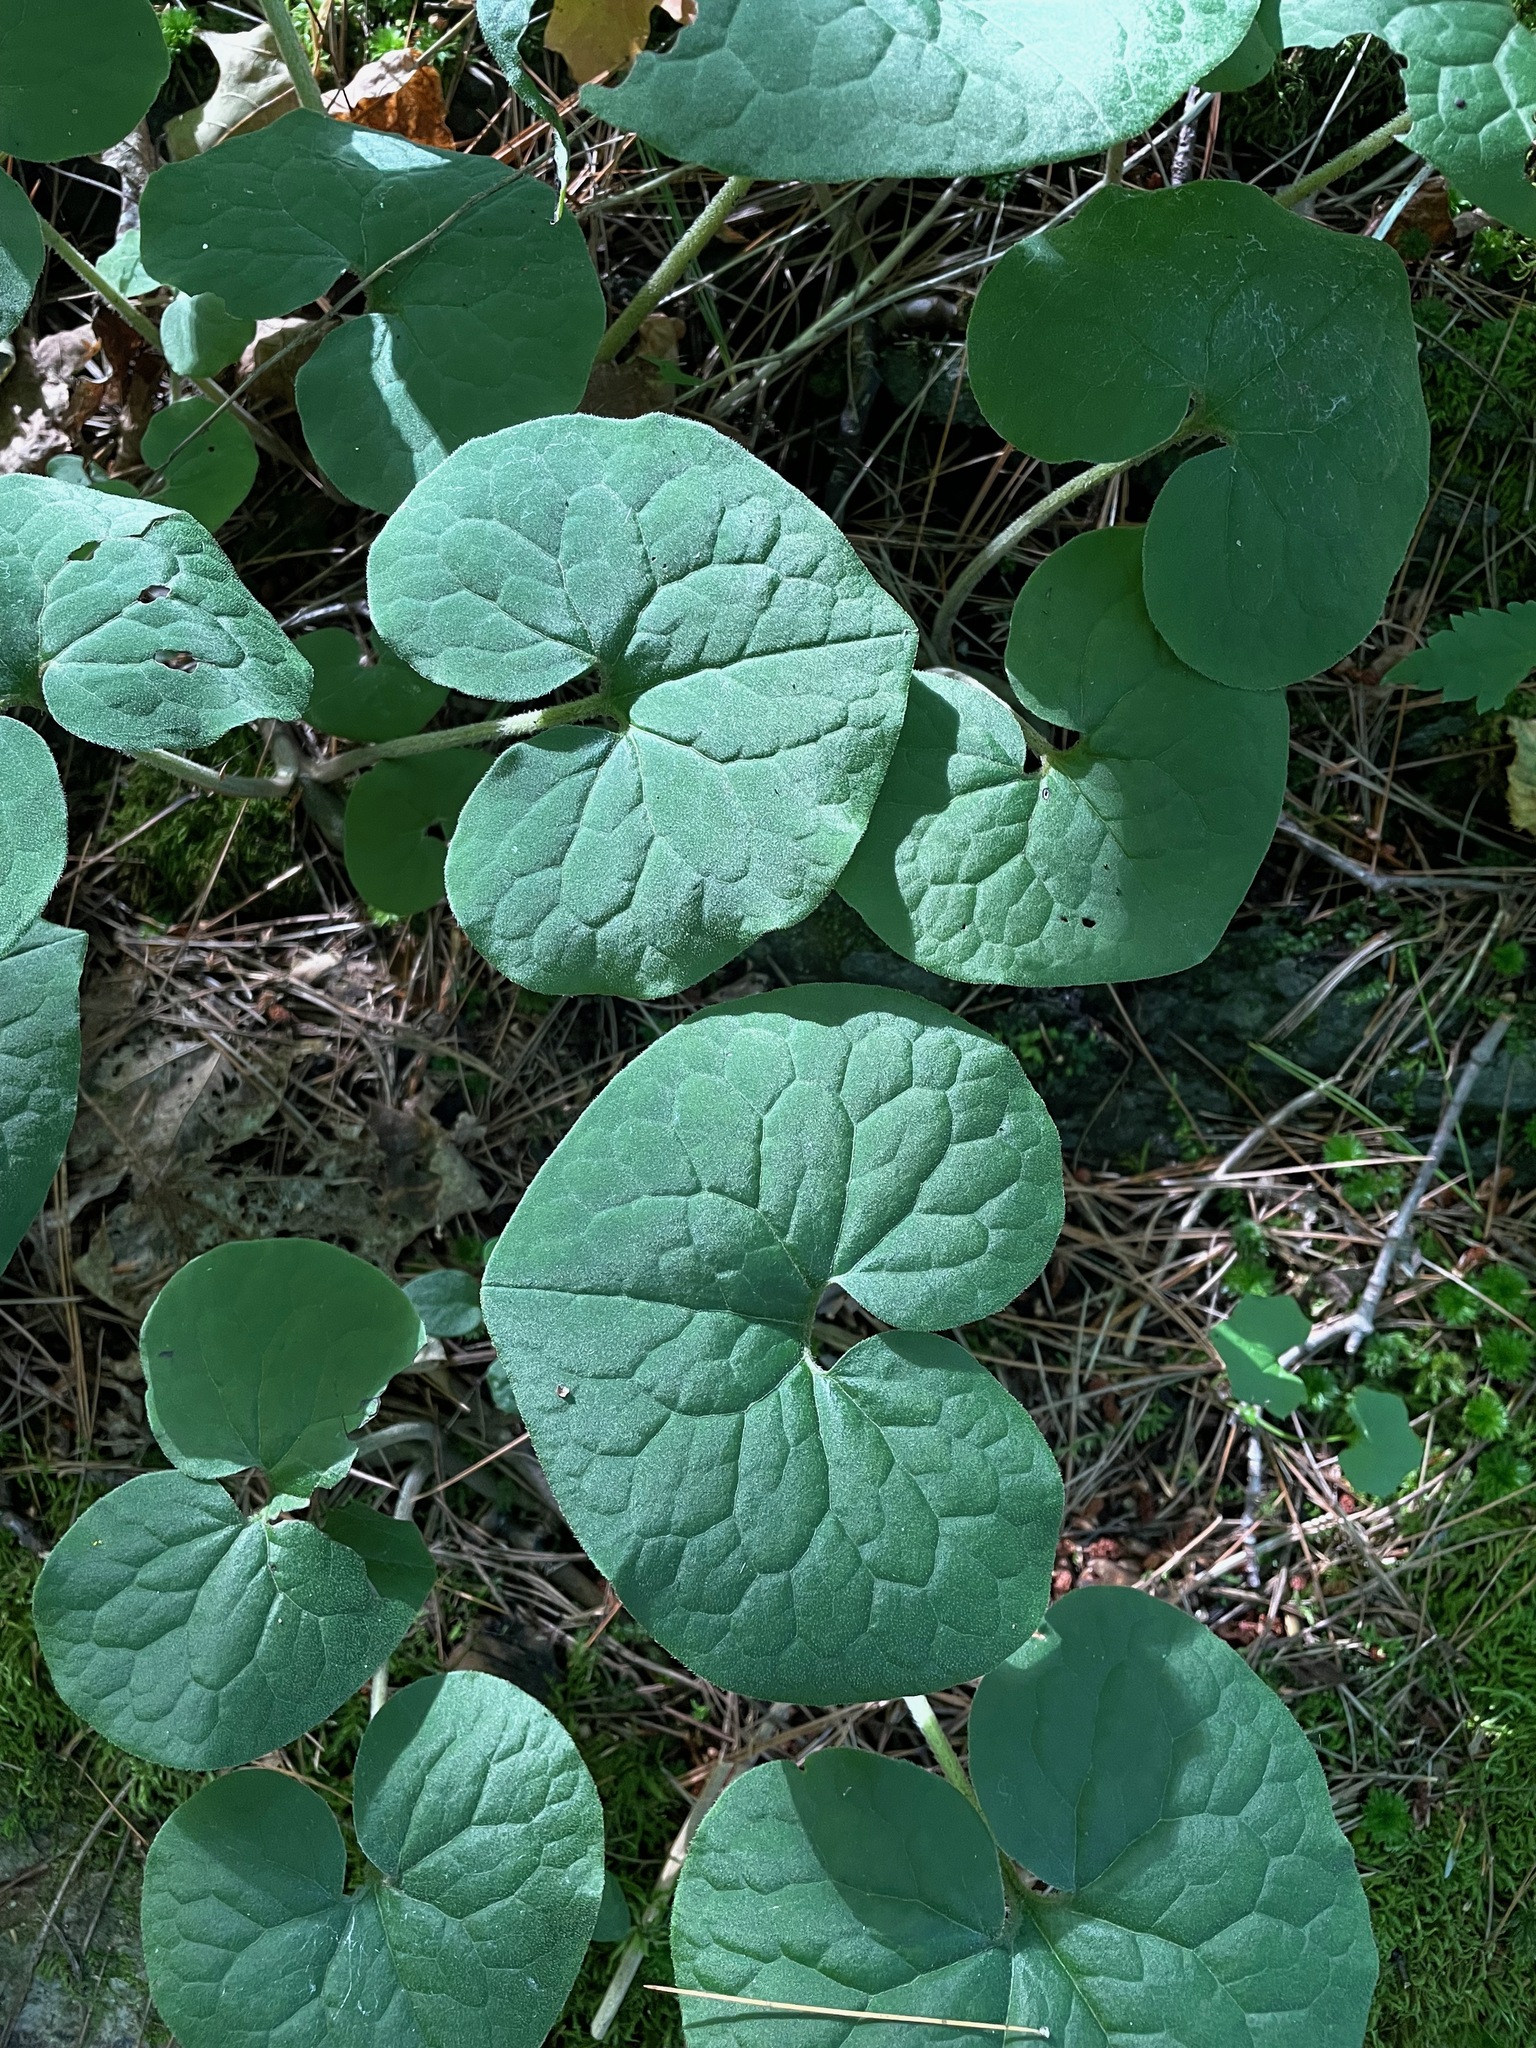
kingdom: Plantae
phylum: Tracheophyta
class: Magnoliopsida
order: Piperales
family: Aristolochiaceae
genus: Asarum
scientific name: Asarum canadense
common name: Wild ginger
